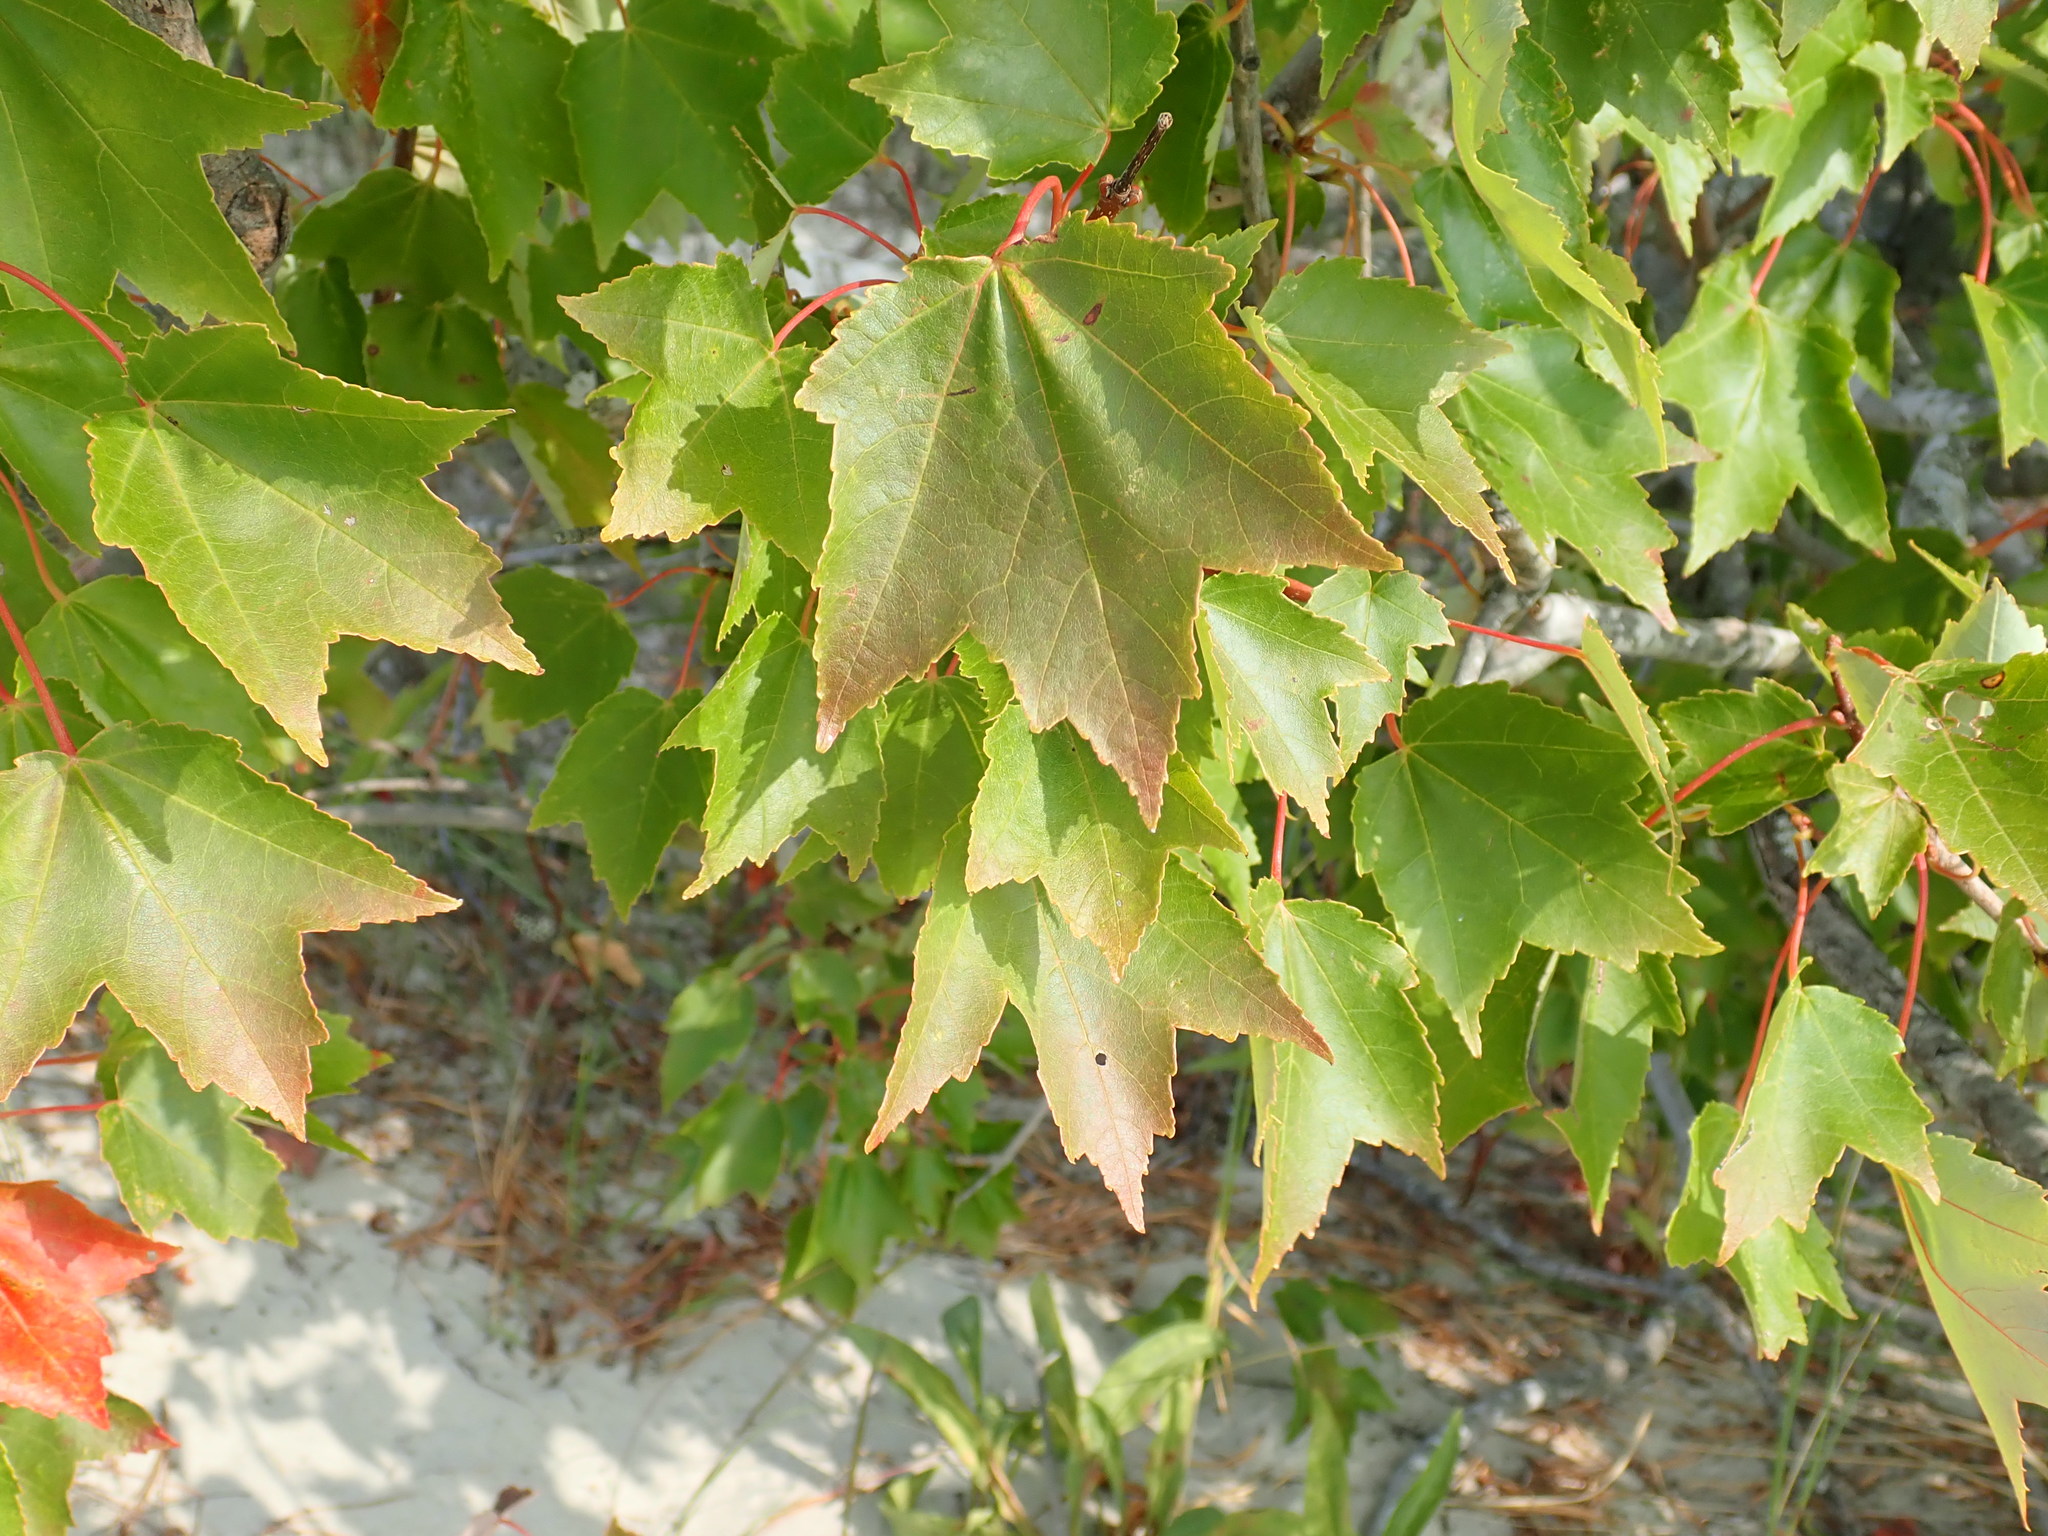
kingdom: Plantae
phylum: Tracheophyta
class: Magnoliopsida
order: Sapindales
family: Sapindaceae
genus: Acer
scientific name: Acer rubrum
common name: Red maple
